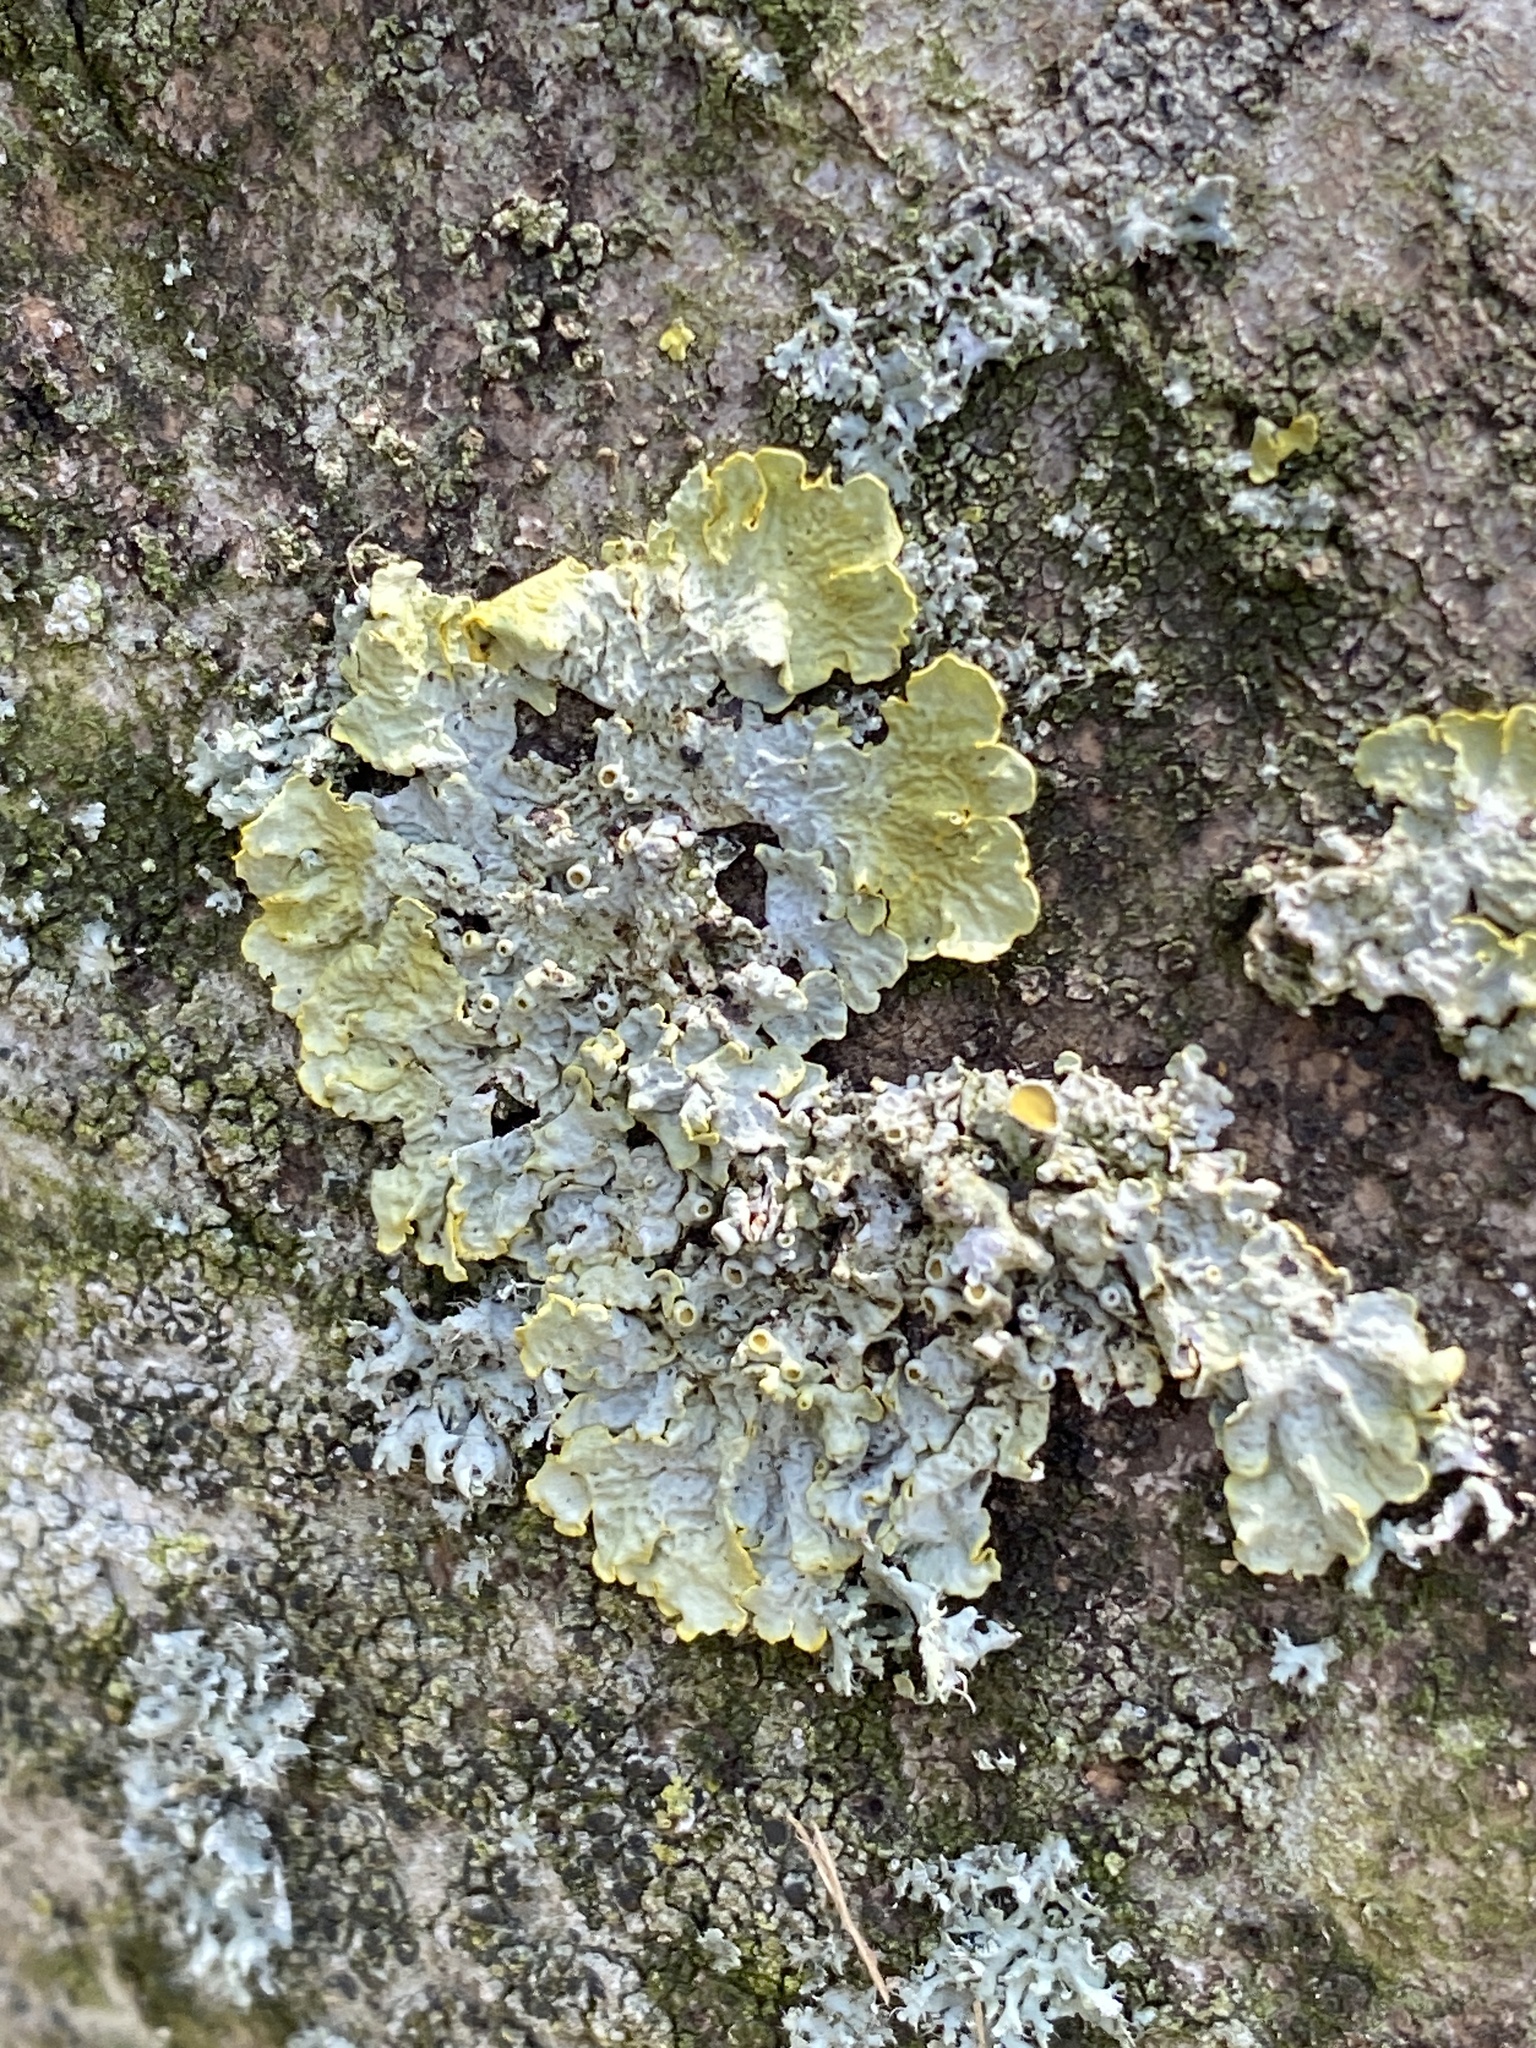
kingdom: Fungi
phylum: Ascomycota
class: Lecanoromycetes
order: Teloschistales
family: Teloschistaceae
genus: Xanthoria
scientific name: Xanthoria parietina
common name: Common orange lichen
